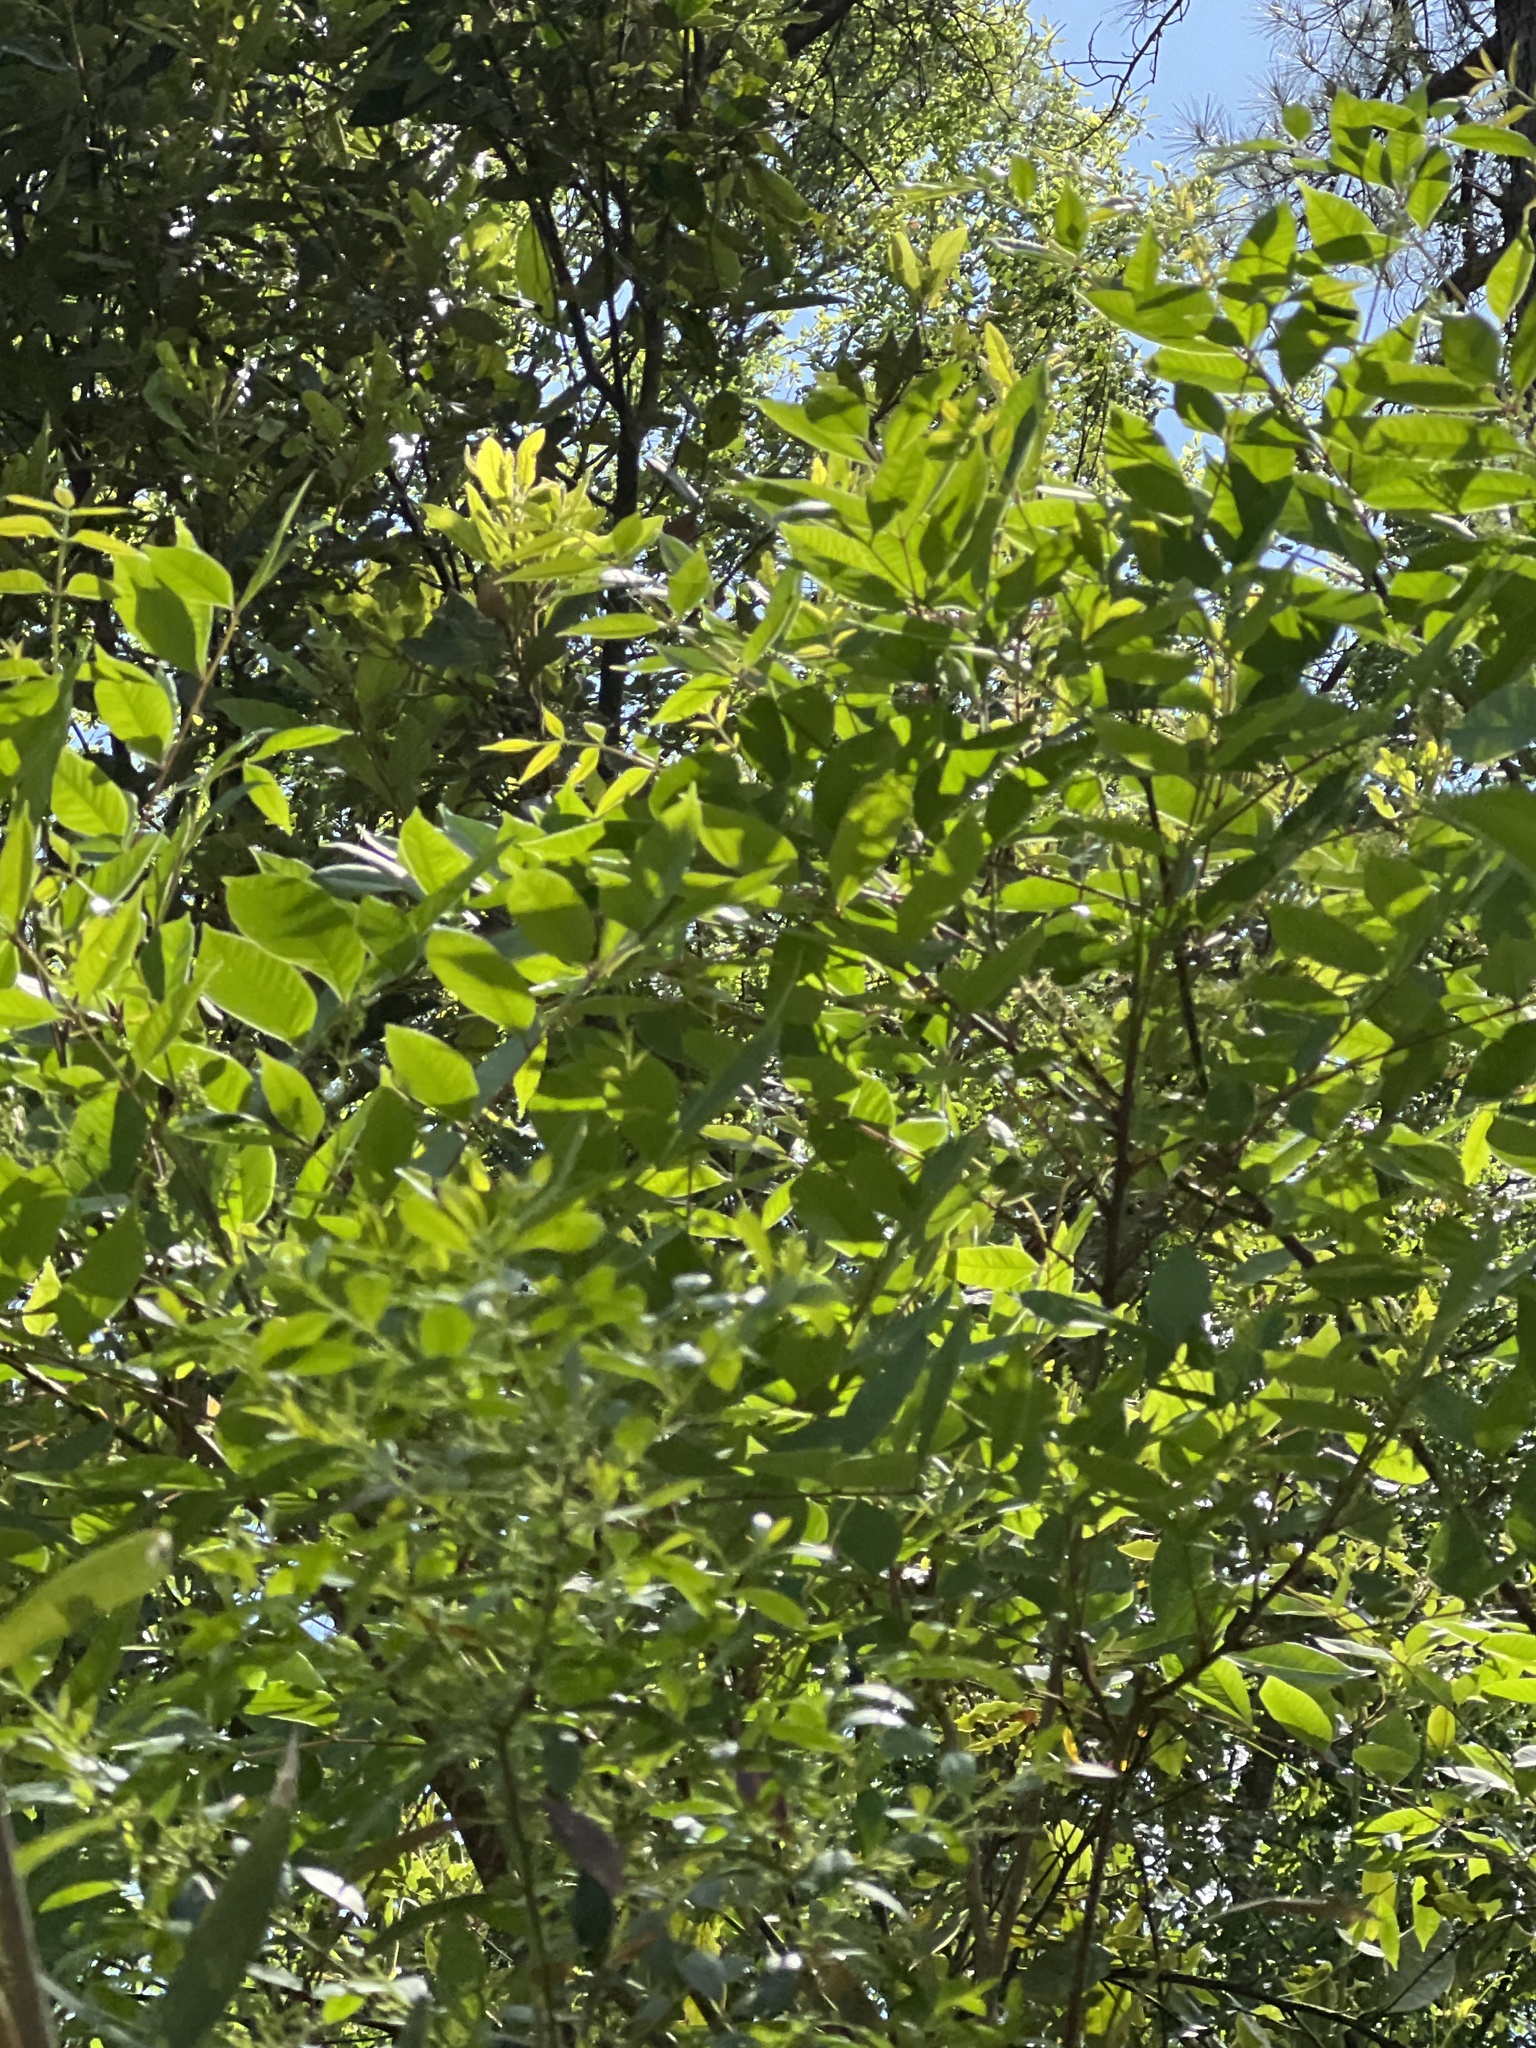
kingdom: Plantae
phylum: Tracheophyta
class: Magnoliopsida
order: Sapindales
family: Anacardiaceae
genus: Toxicodendron
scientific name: Toxicodendron vernix
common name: Poison sumac
